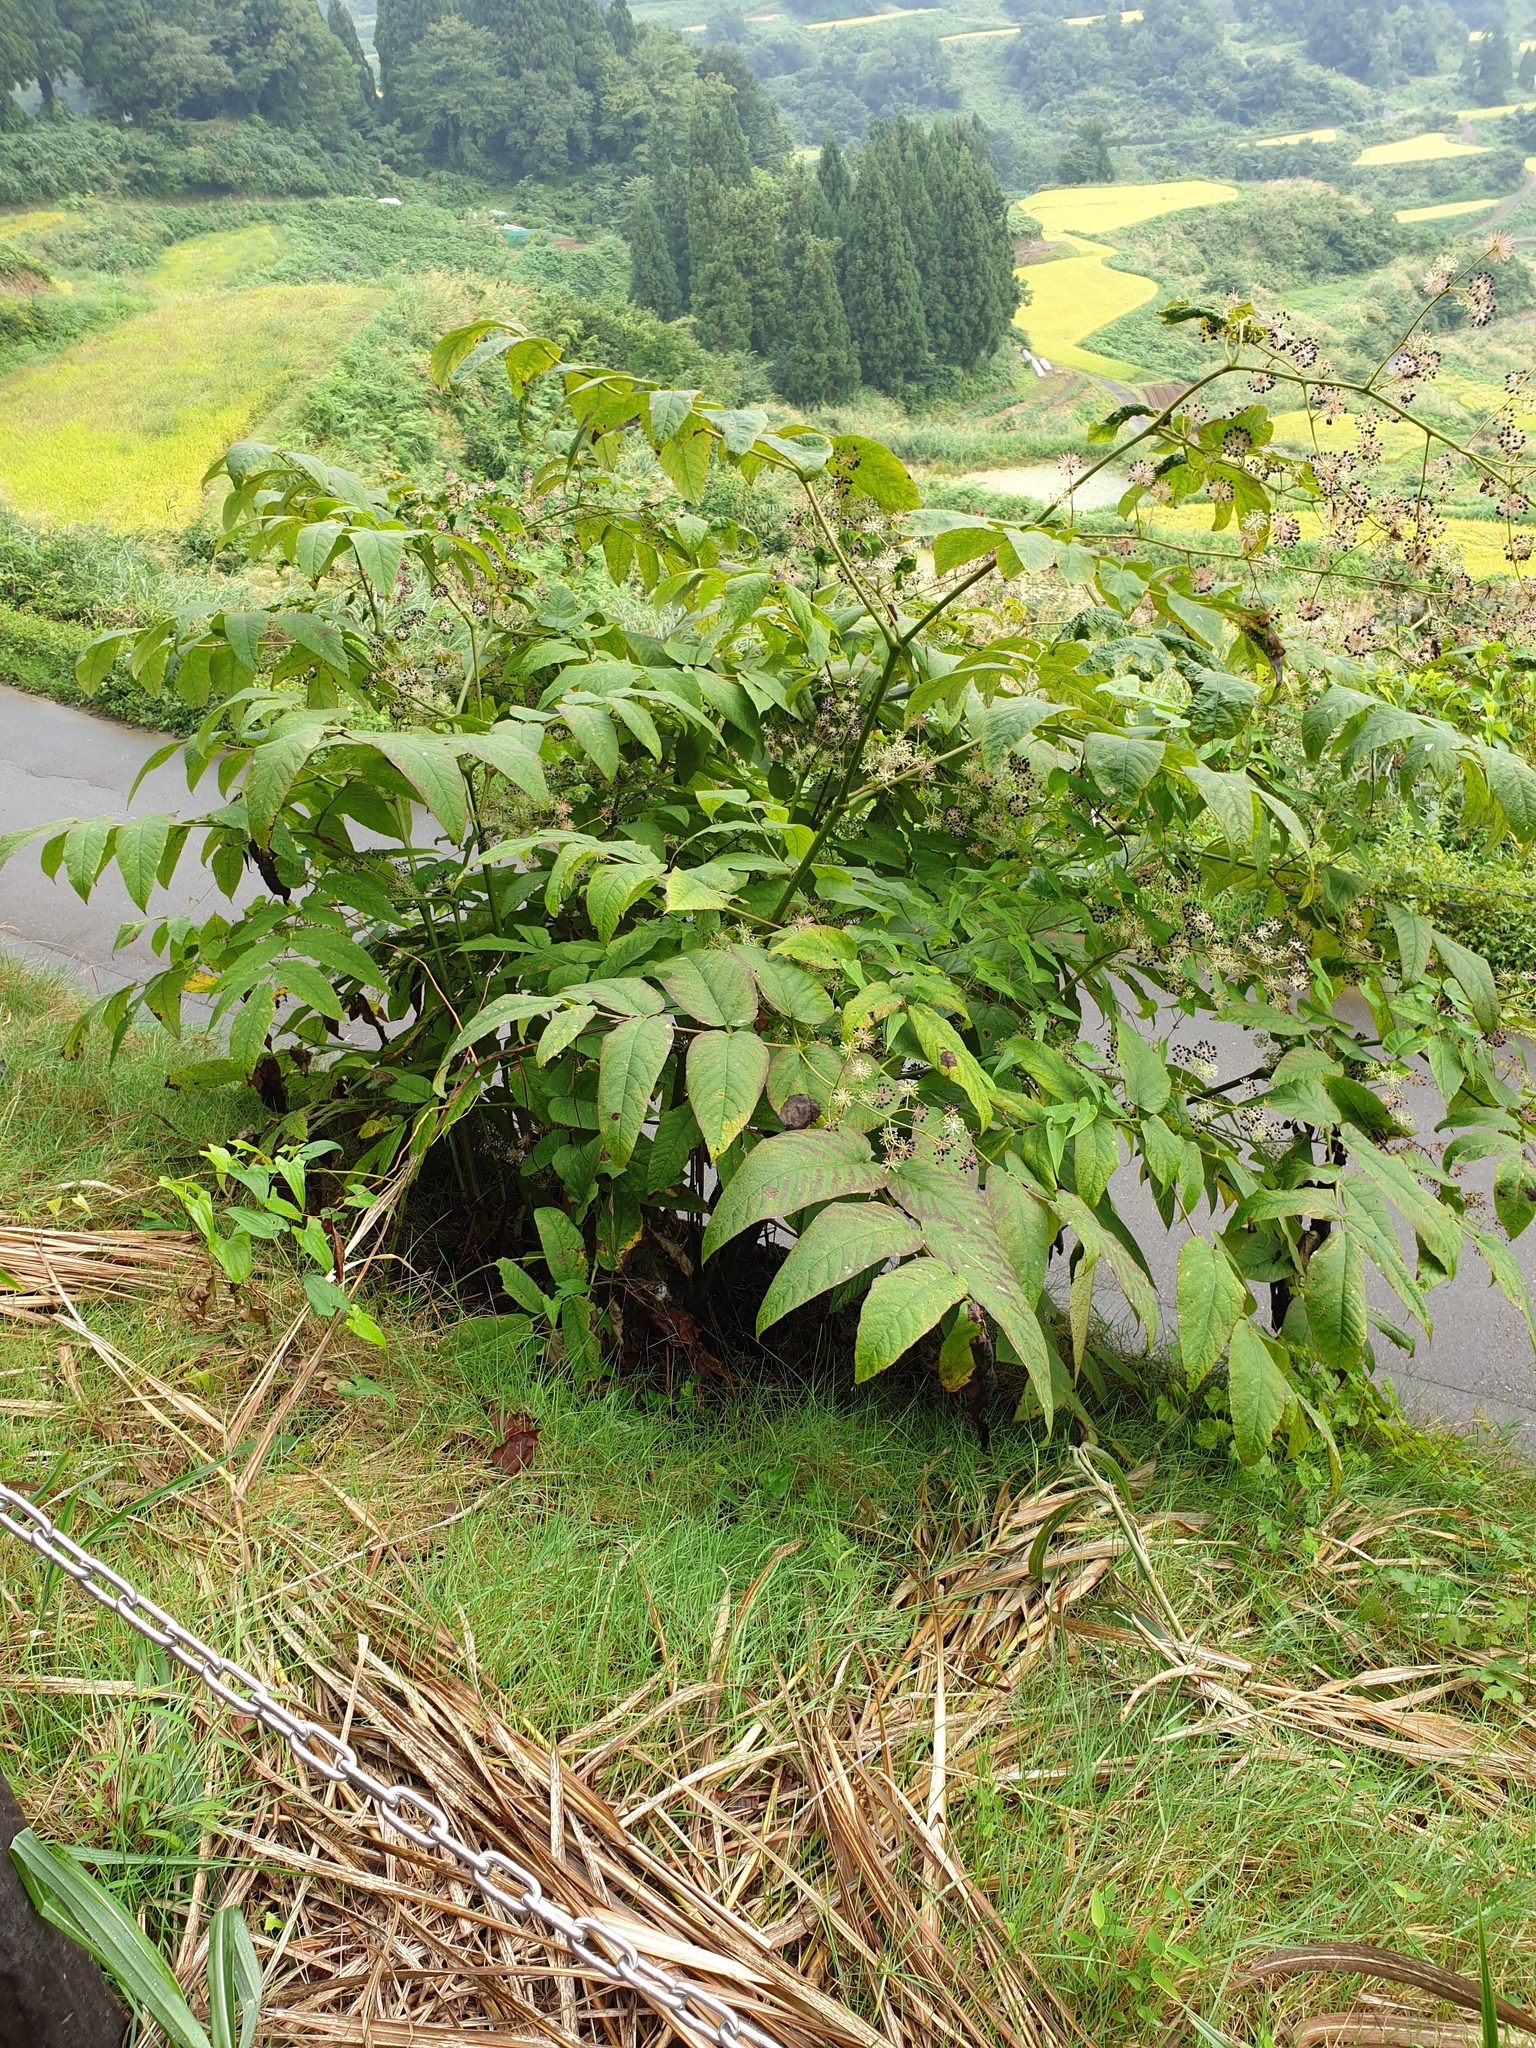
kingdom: Plantae
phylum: Tracheophyta
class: Magnoliopsida
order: Apiales
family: Araliaceae
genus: Aralia
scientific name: Aralia cordata
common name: Udo
